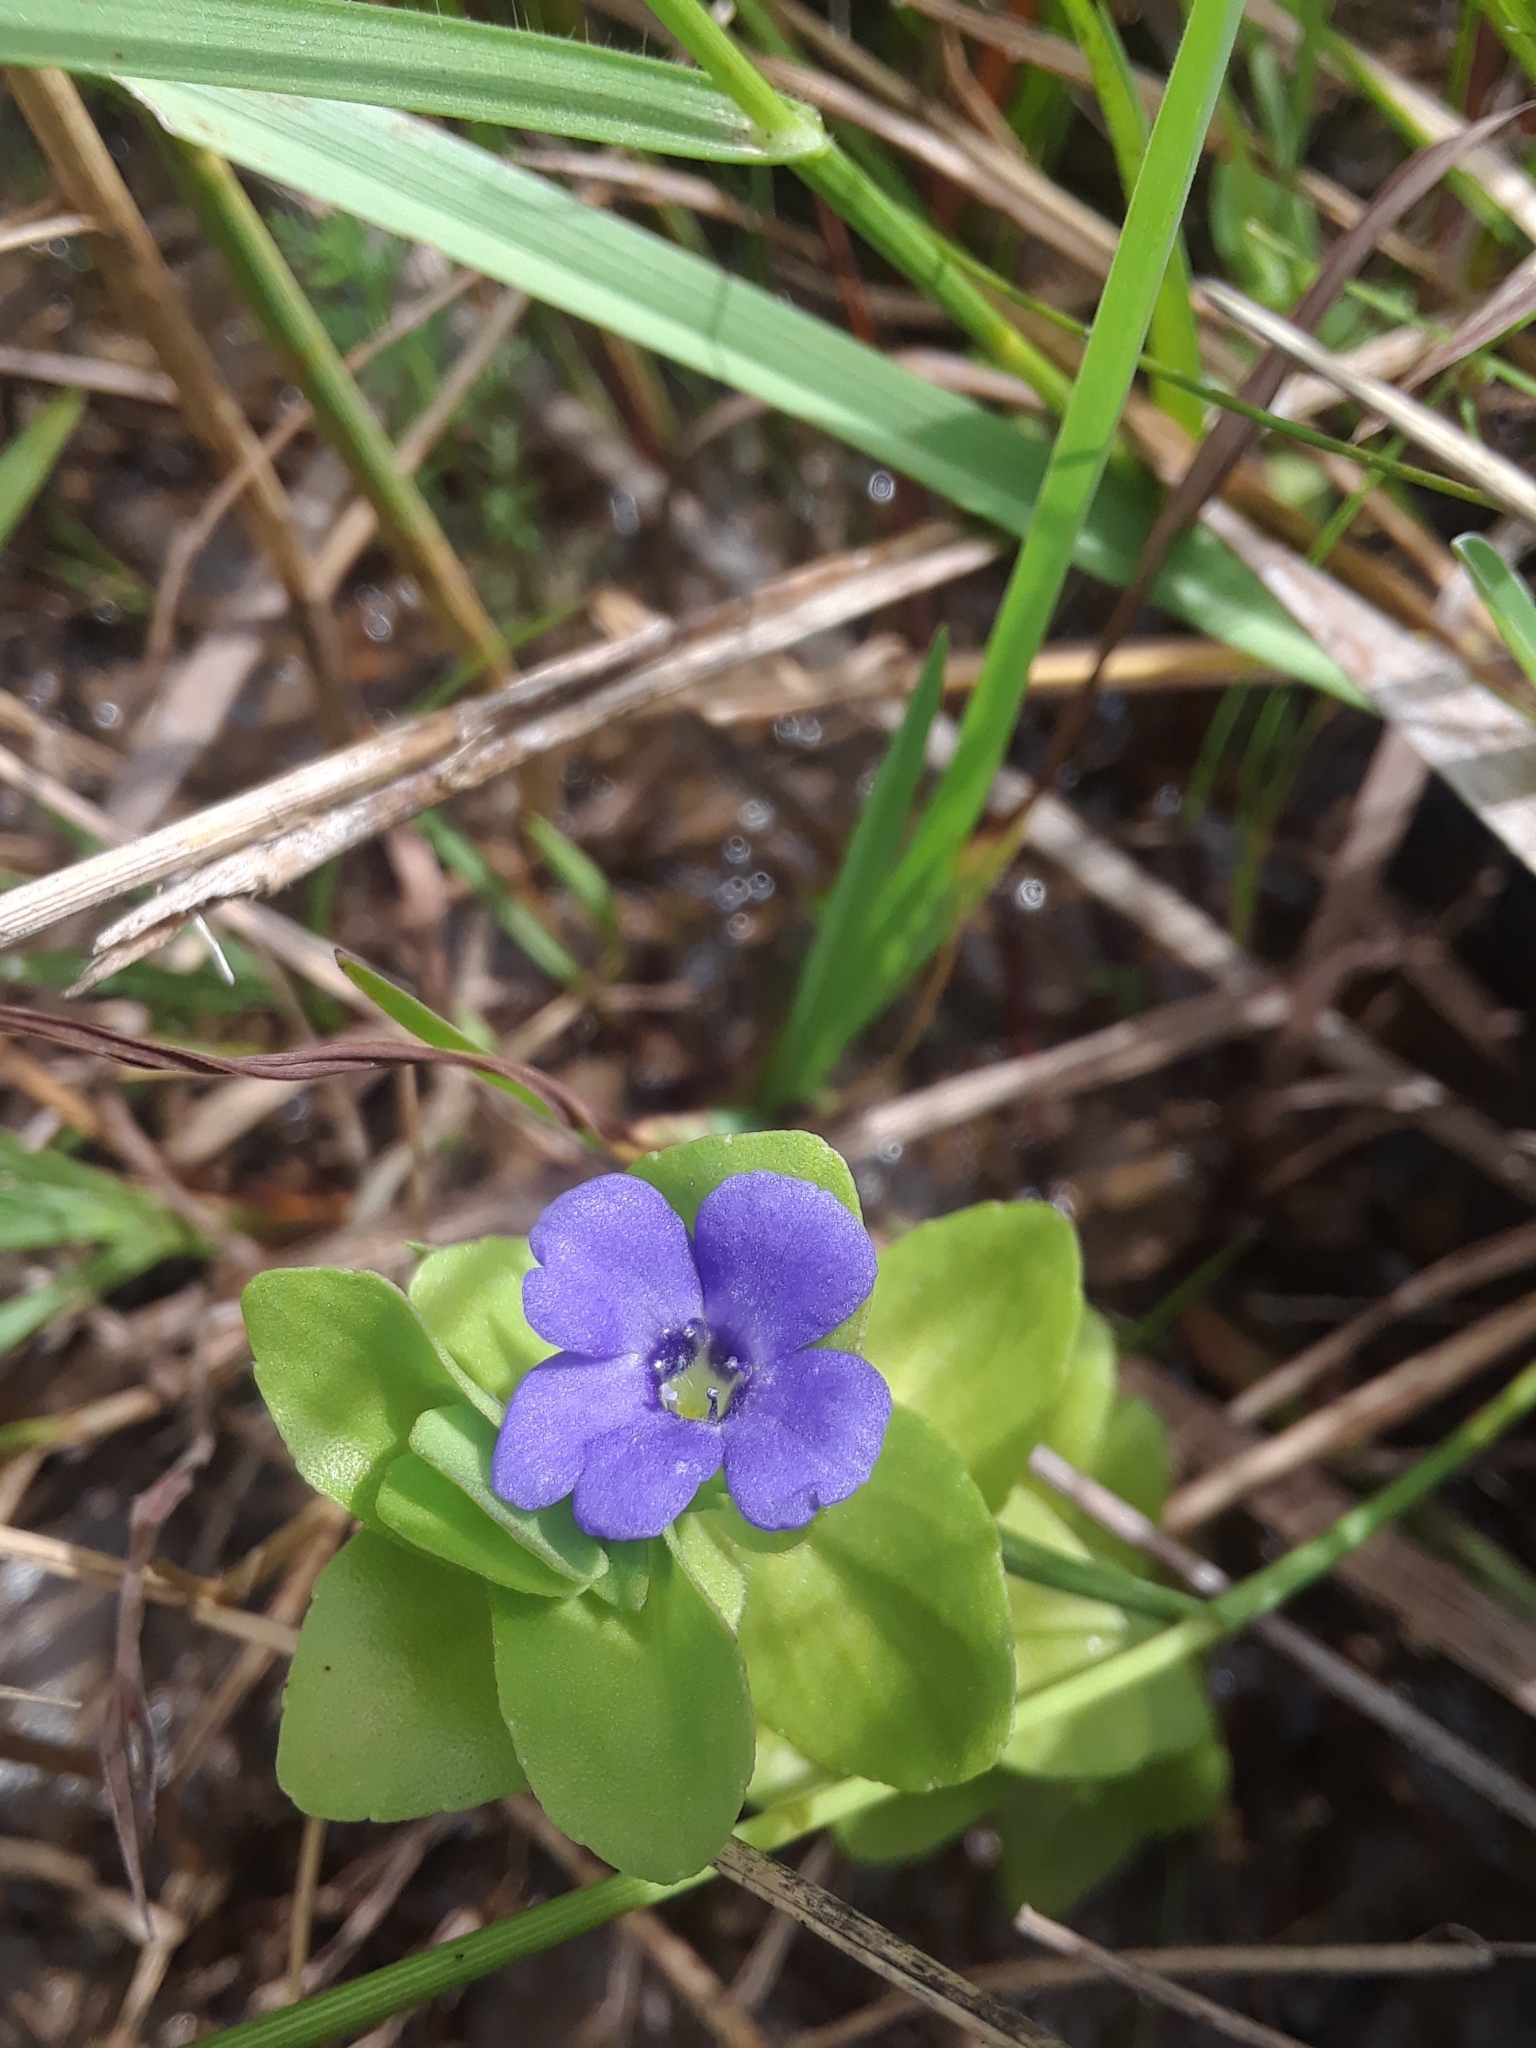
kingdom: Plantae
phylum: Tracheophyta
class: Magnoliopsida
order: Lamiales
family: Plantaginaceae
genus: Bacopa
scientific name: Bacopa caroliniana
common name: Lemon bacopa
